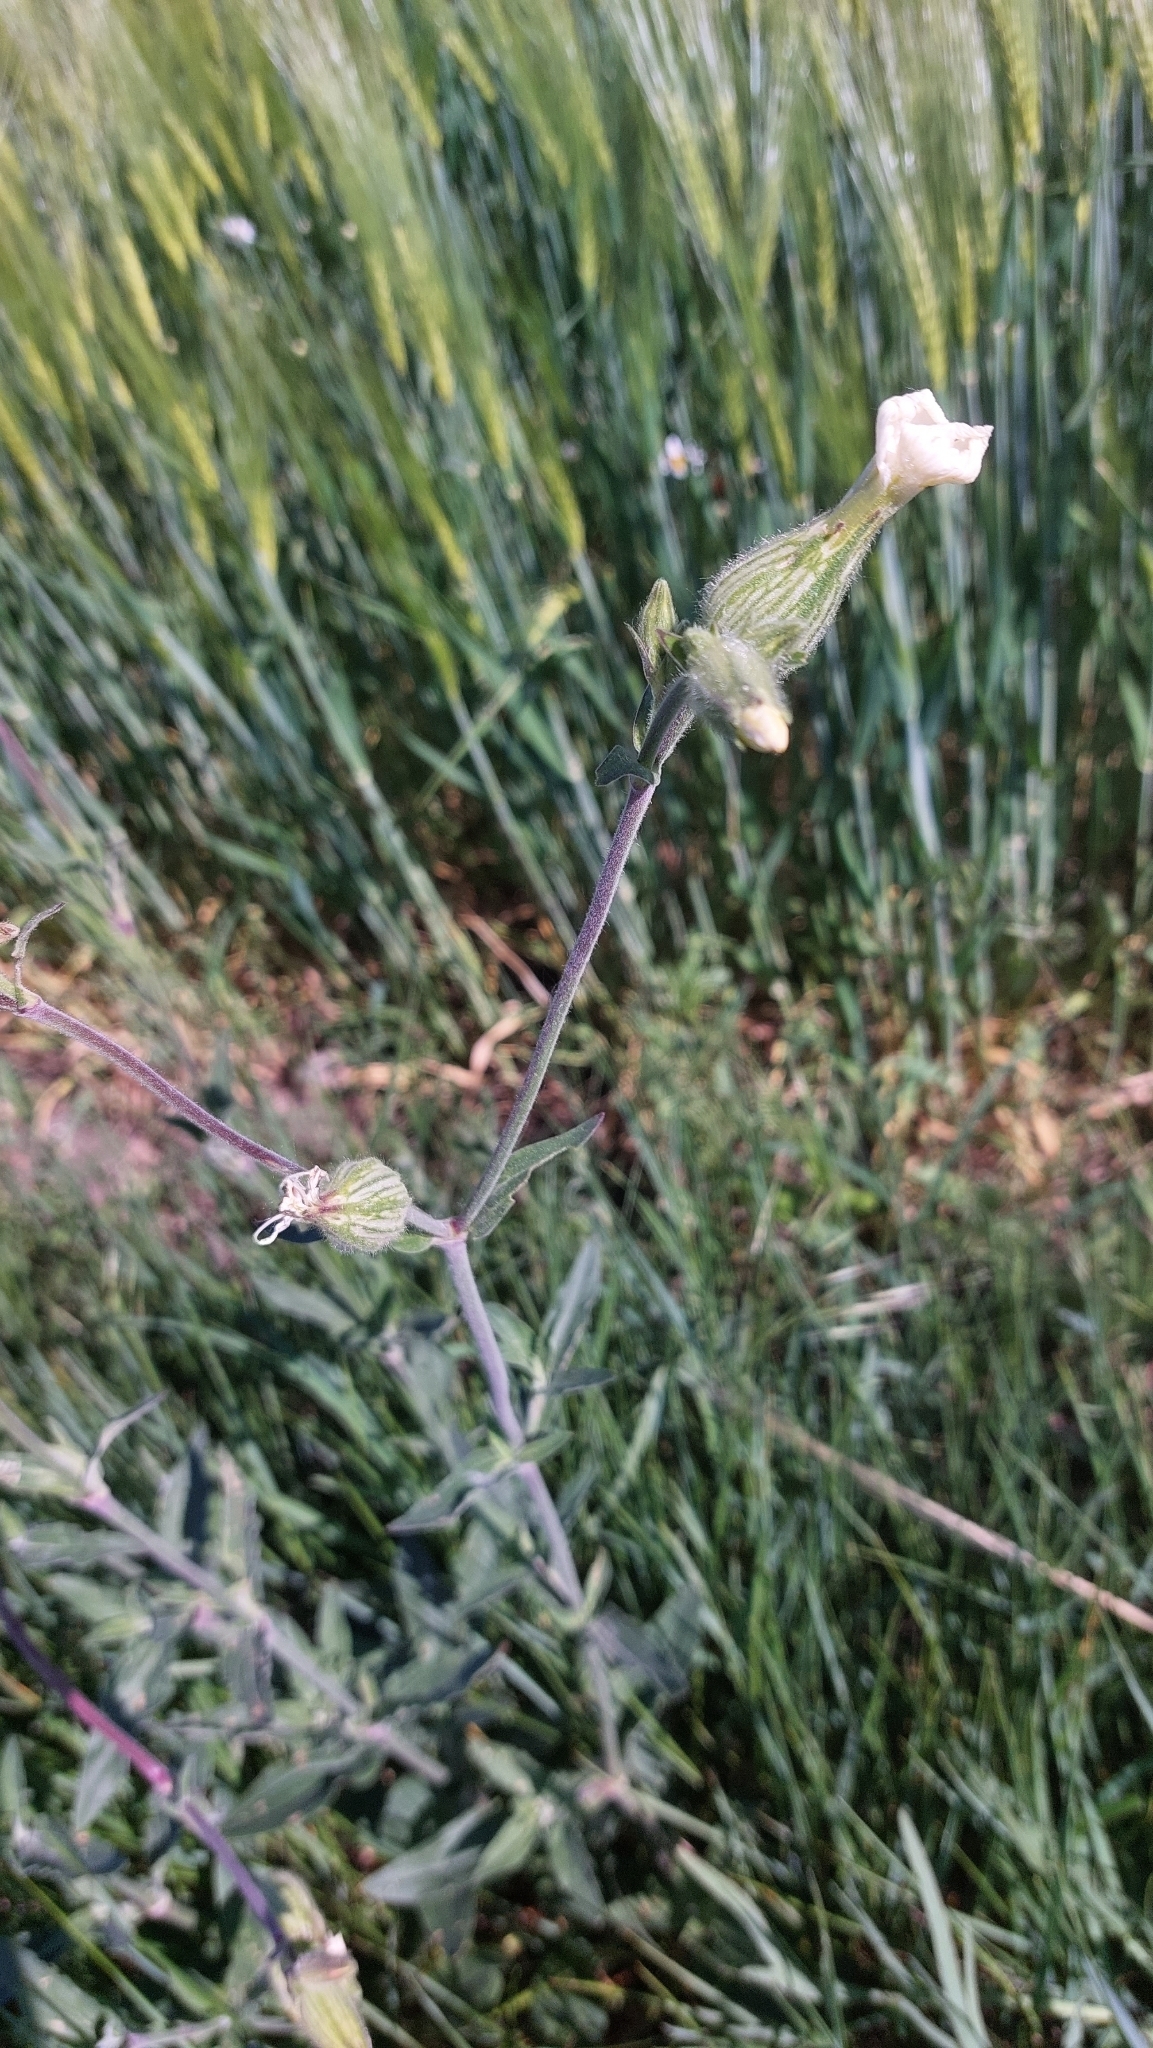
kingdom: Plantae
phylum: Tracheophyta
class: Magnoliopsida
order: Caryophyllales
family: Caryophyllaceae
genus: Silene
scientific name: Silene latifolia
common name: White campion
